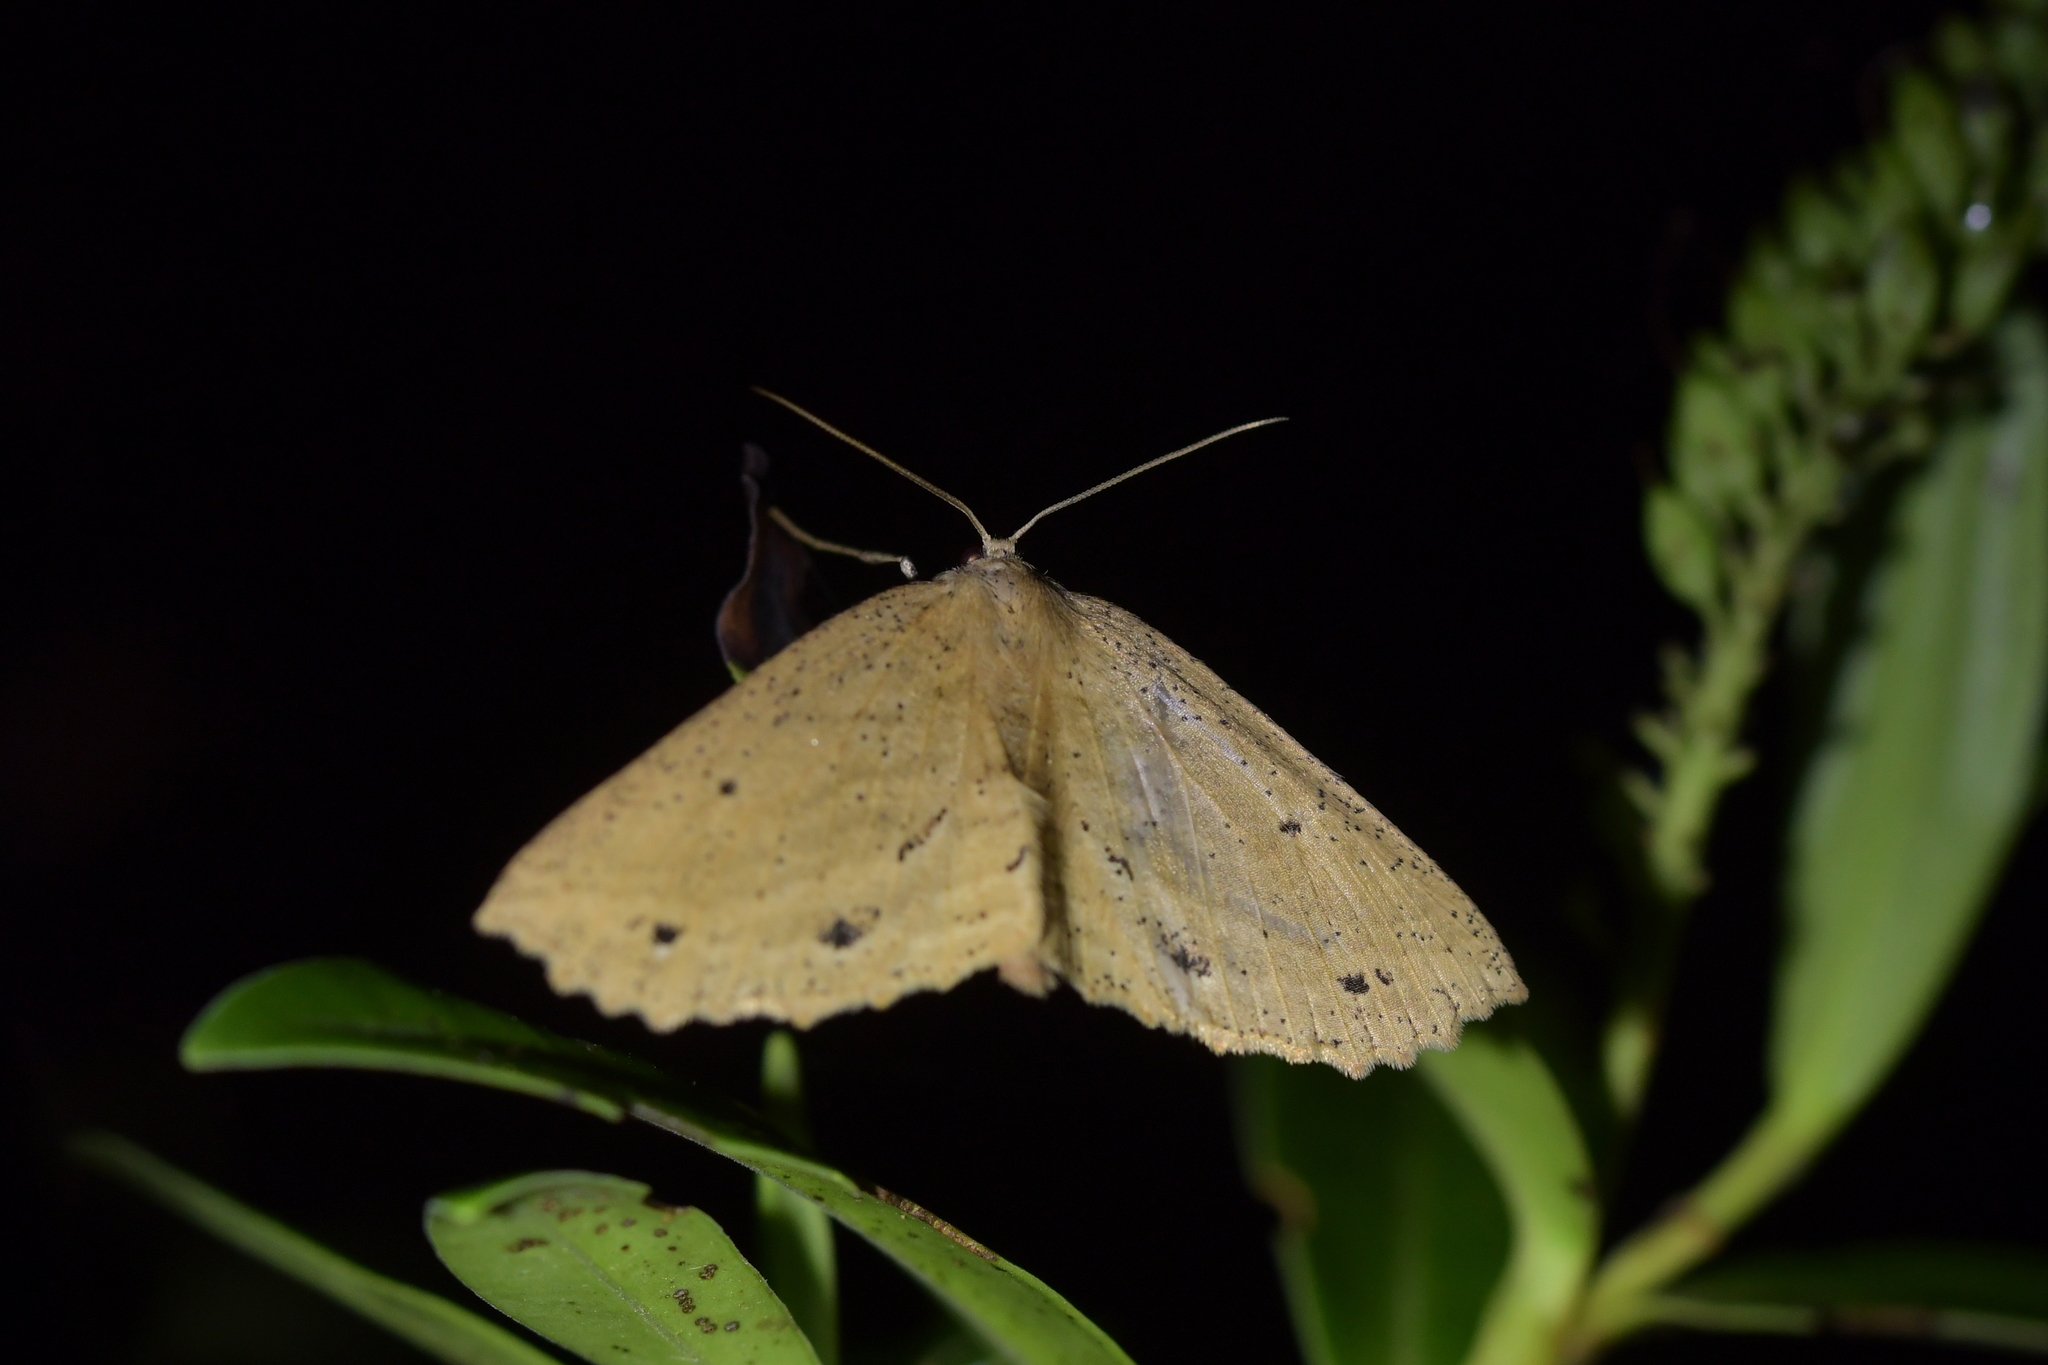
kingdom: Animalia
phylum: Arthropoda
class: Insecta
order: Lepidoptera
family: Geometridae
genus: Xyridacma
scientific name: Xyridacma veronicae
